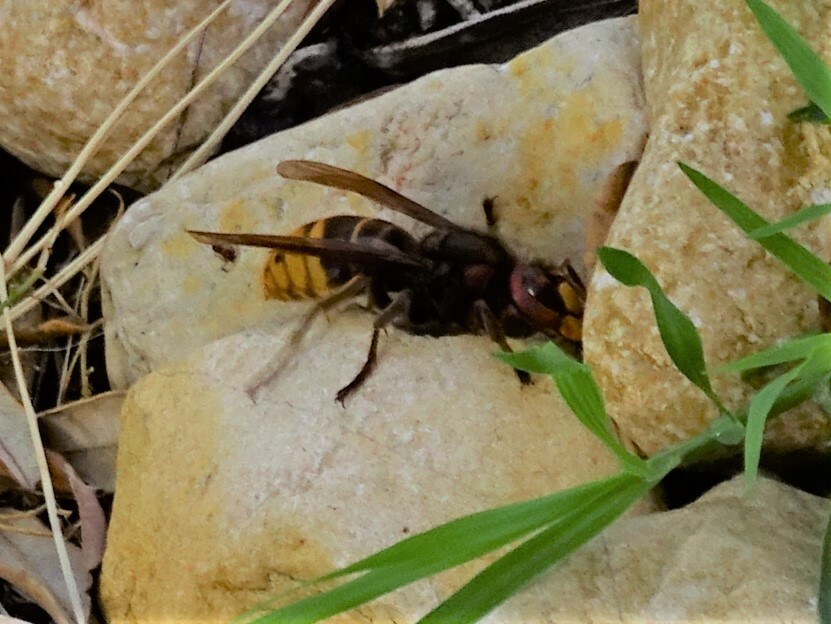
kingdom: Animalia
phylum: Arthropoda
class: Insecta
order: Hymenoptera
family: Vespidae
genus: Vespa
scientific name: Vespa crabro
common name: Hornet
